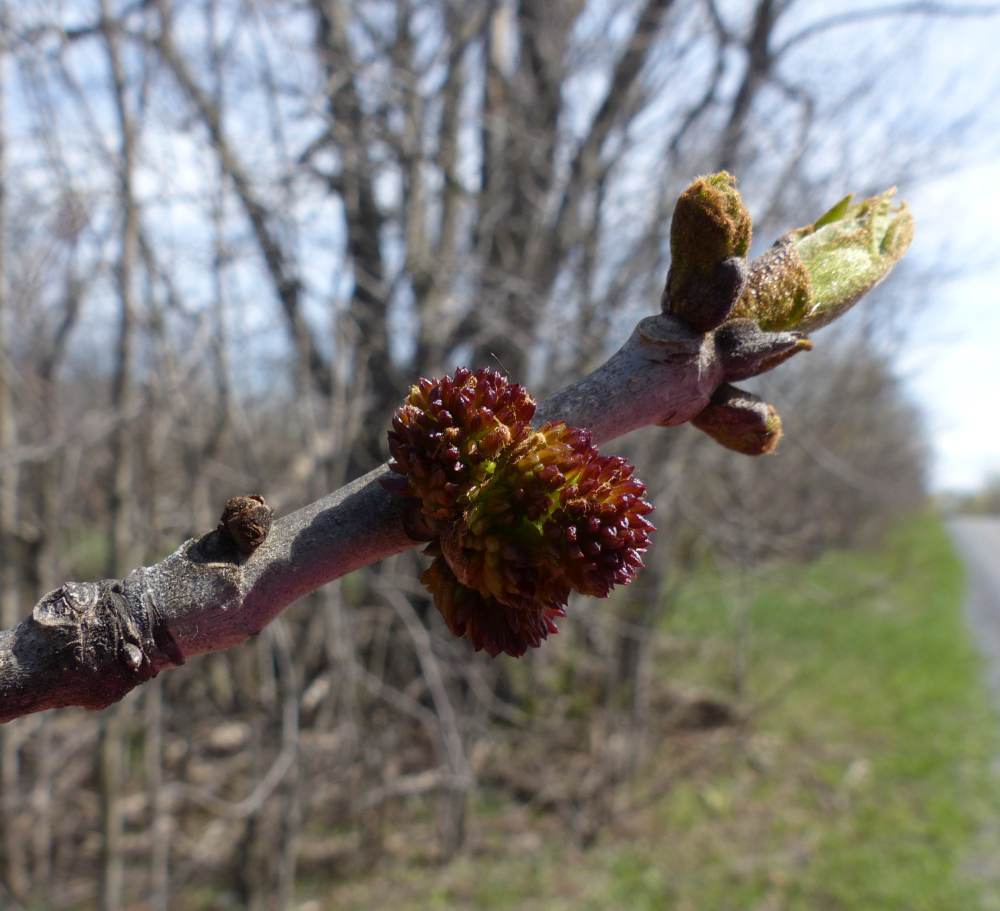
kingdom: Plantae
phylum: Tracheophyta
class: Magnoliopsida
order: Lamiales
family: Oleaceae
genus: Fraxinus
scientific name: Fraxinus pennsylvanica
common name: Green ash
